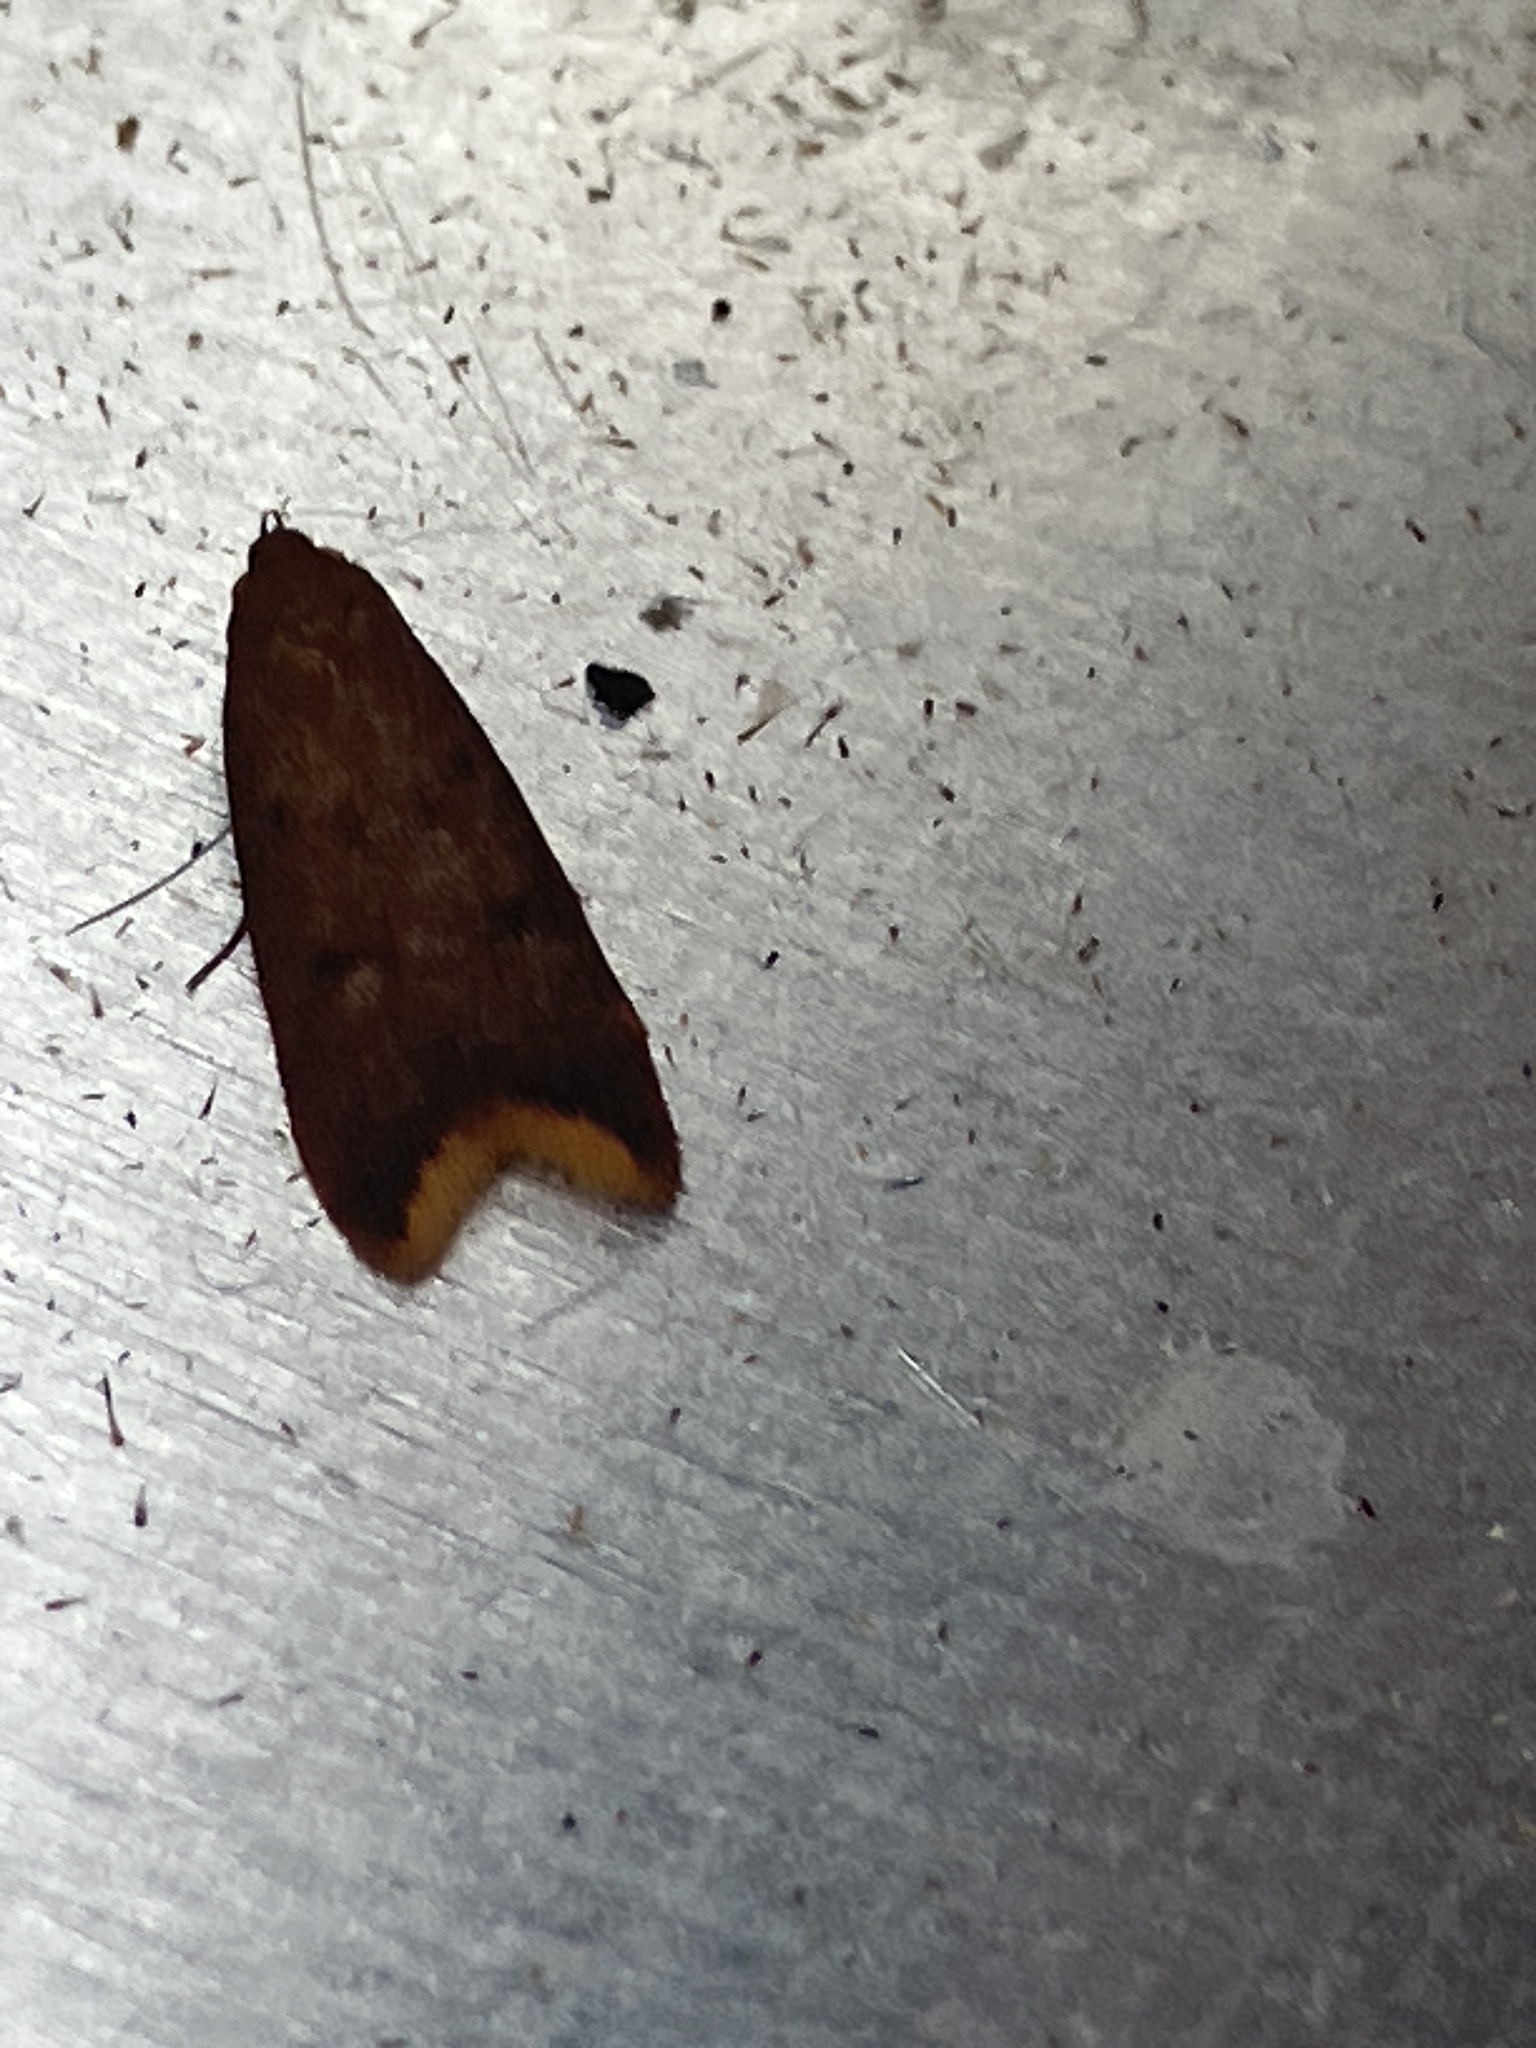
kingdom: Animalia
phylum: Arthropoda
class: Insecta
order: Lepidoptera
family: Oecophoridae
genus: Tachystola
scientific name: Tachystola acroxantha
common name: Ruddy streak
